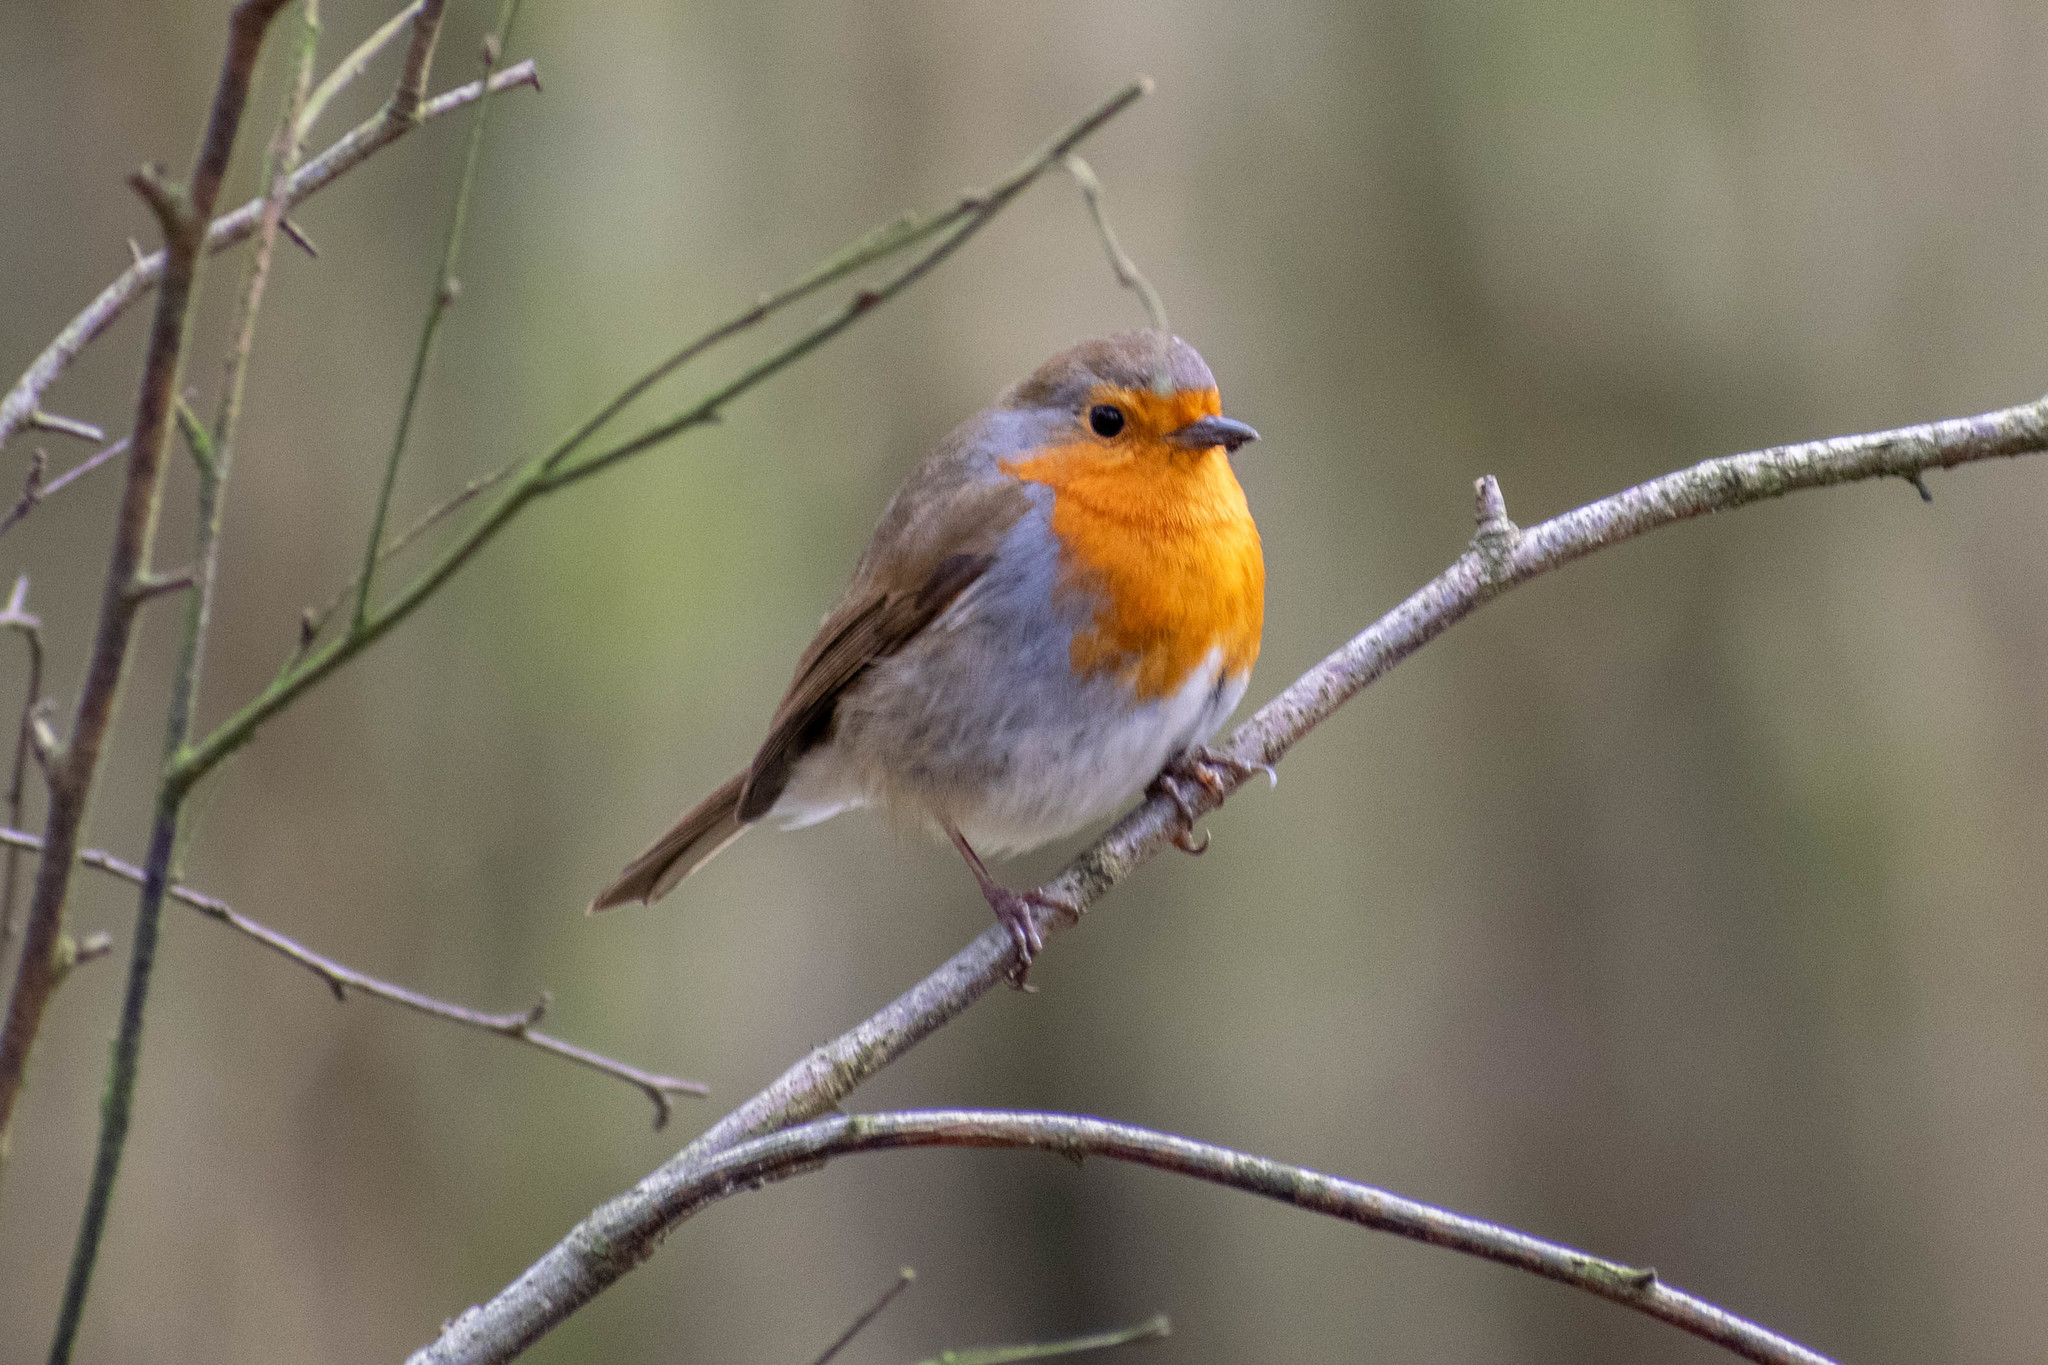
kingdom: Animalia
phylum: Chordata
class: Aves
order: Passeriformes
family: Muscicapidae
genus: Erithacus
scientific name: Erithacus rubecula
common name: European robin
